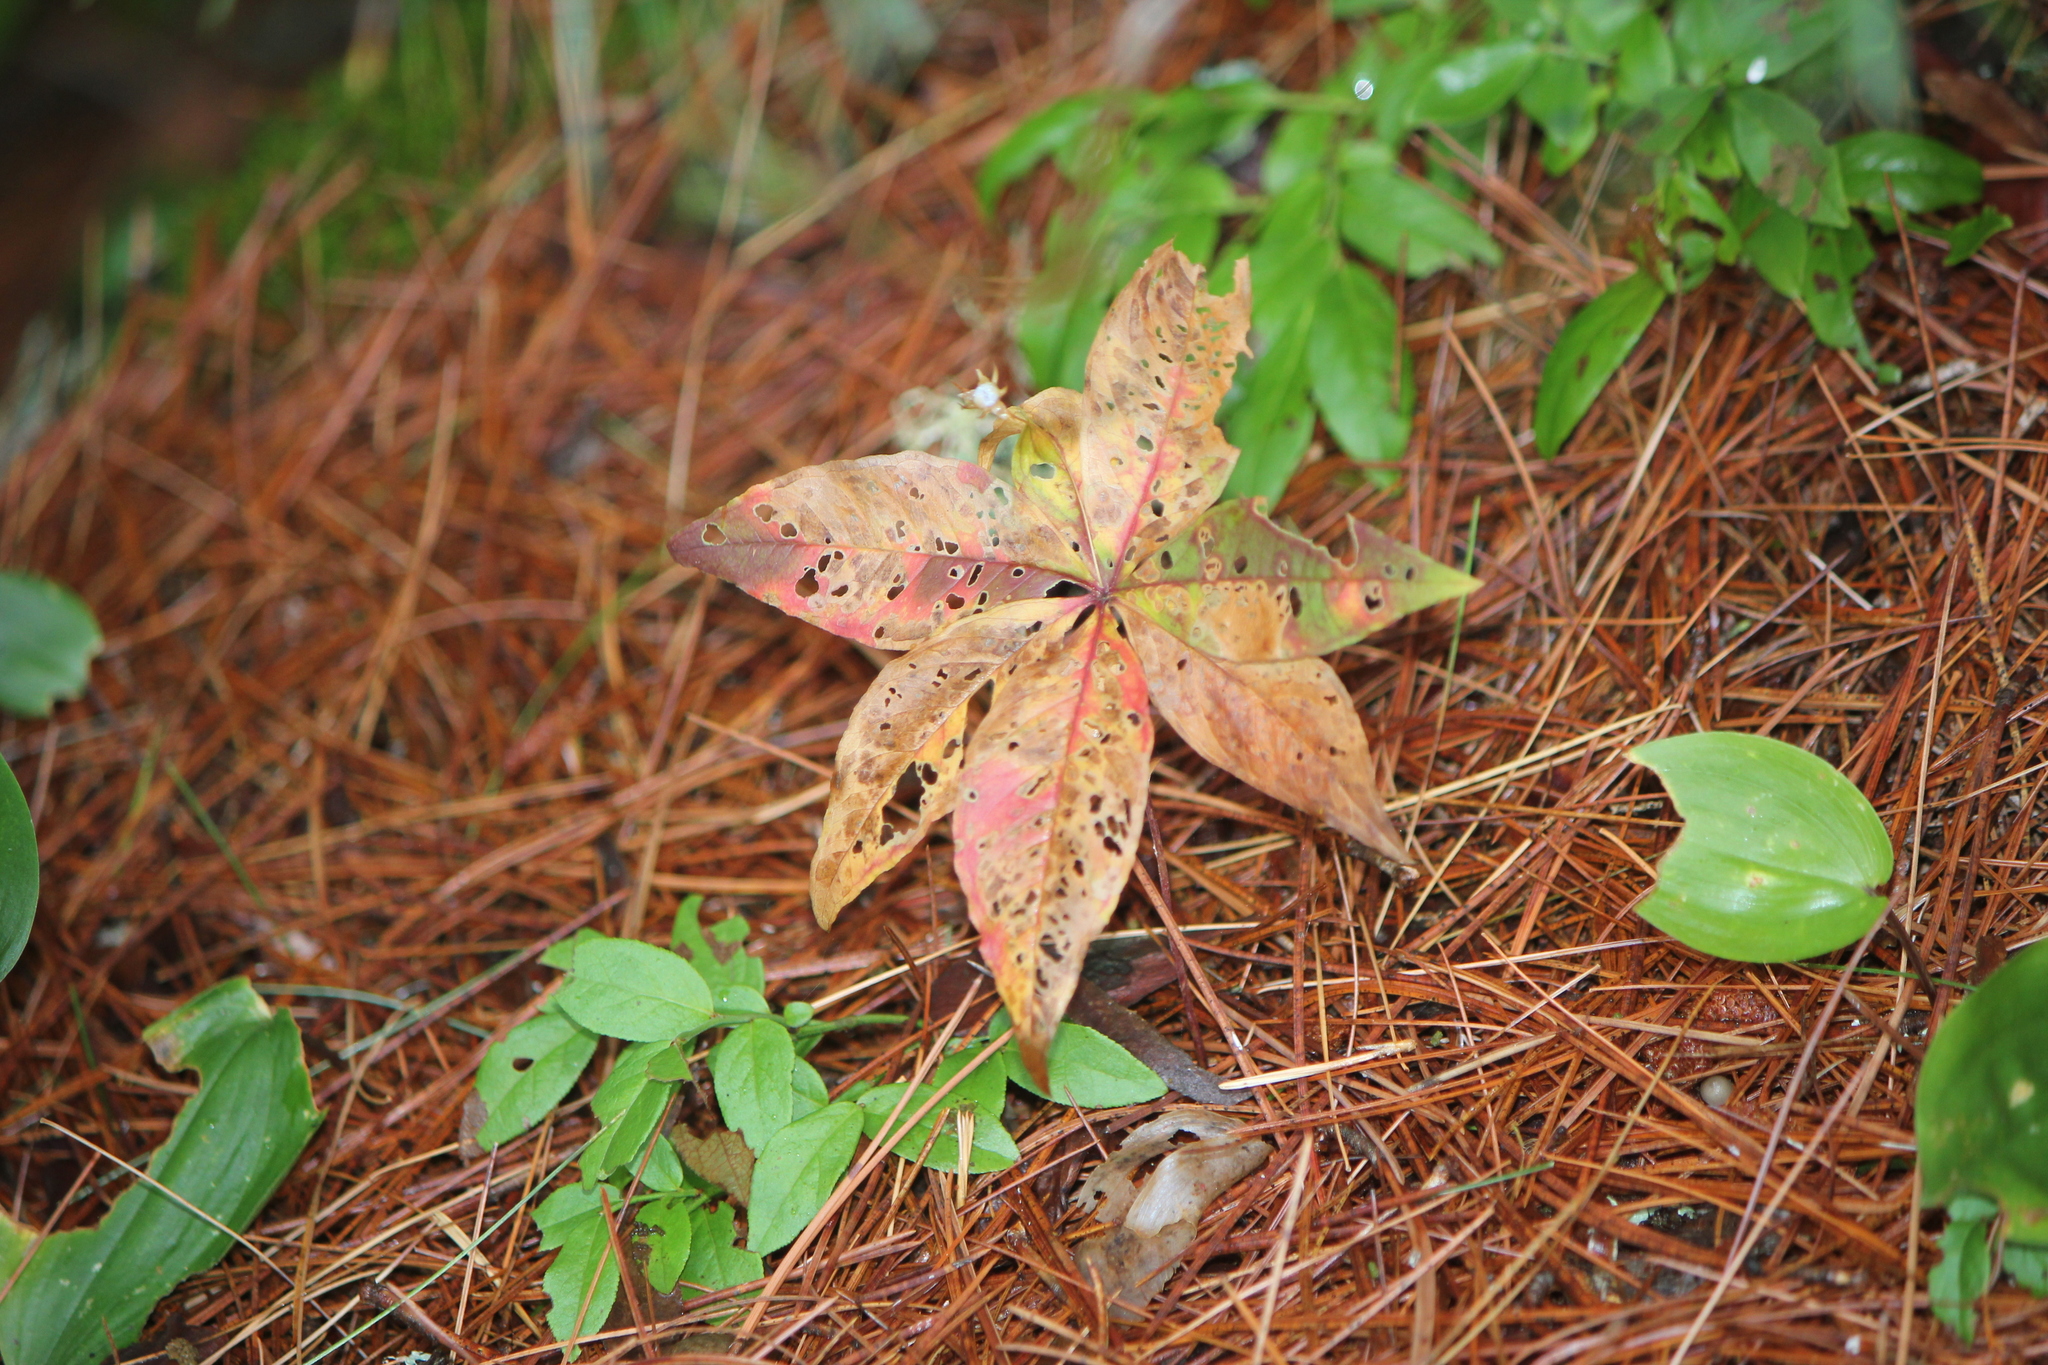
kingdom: Plantae
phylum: Tracheophyta
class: Magnoliopsida
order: Ericales
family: Primulaceae
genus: Lysimachia
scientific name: Lysimachia borealis
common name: American starflower
